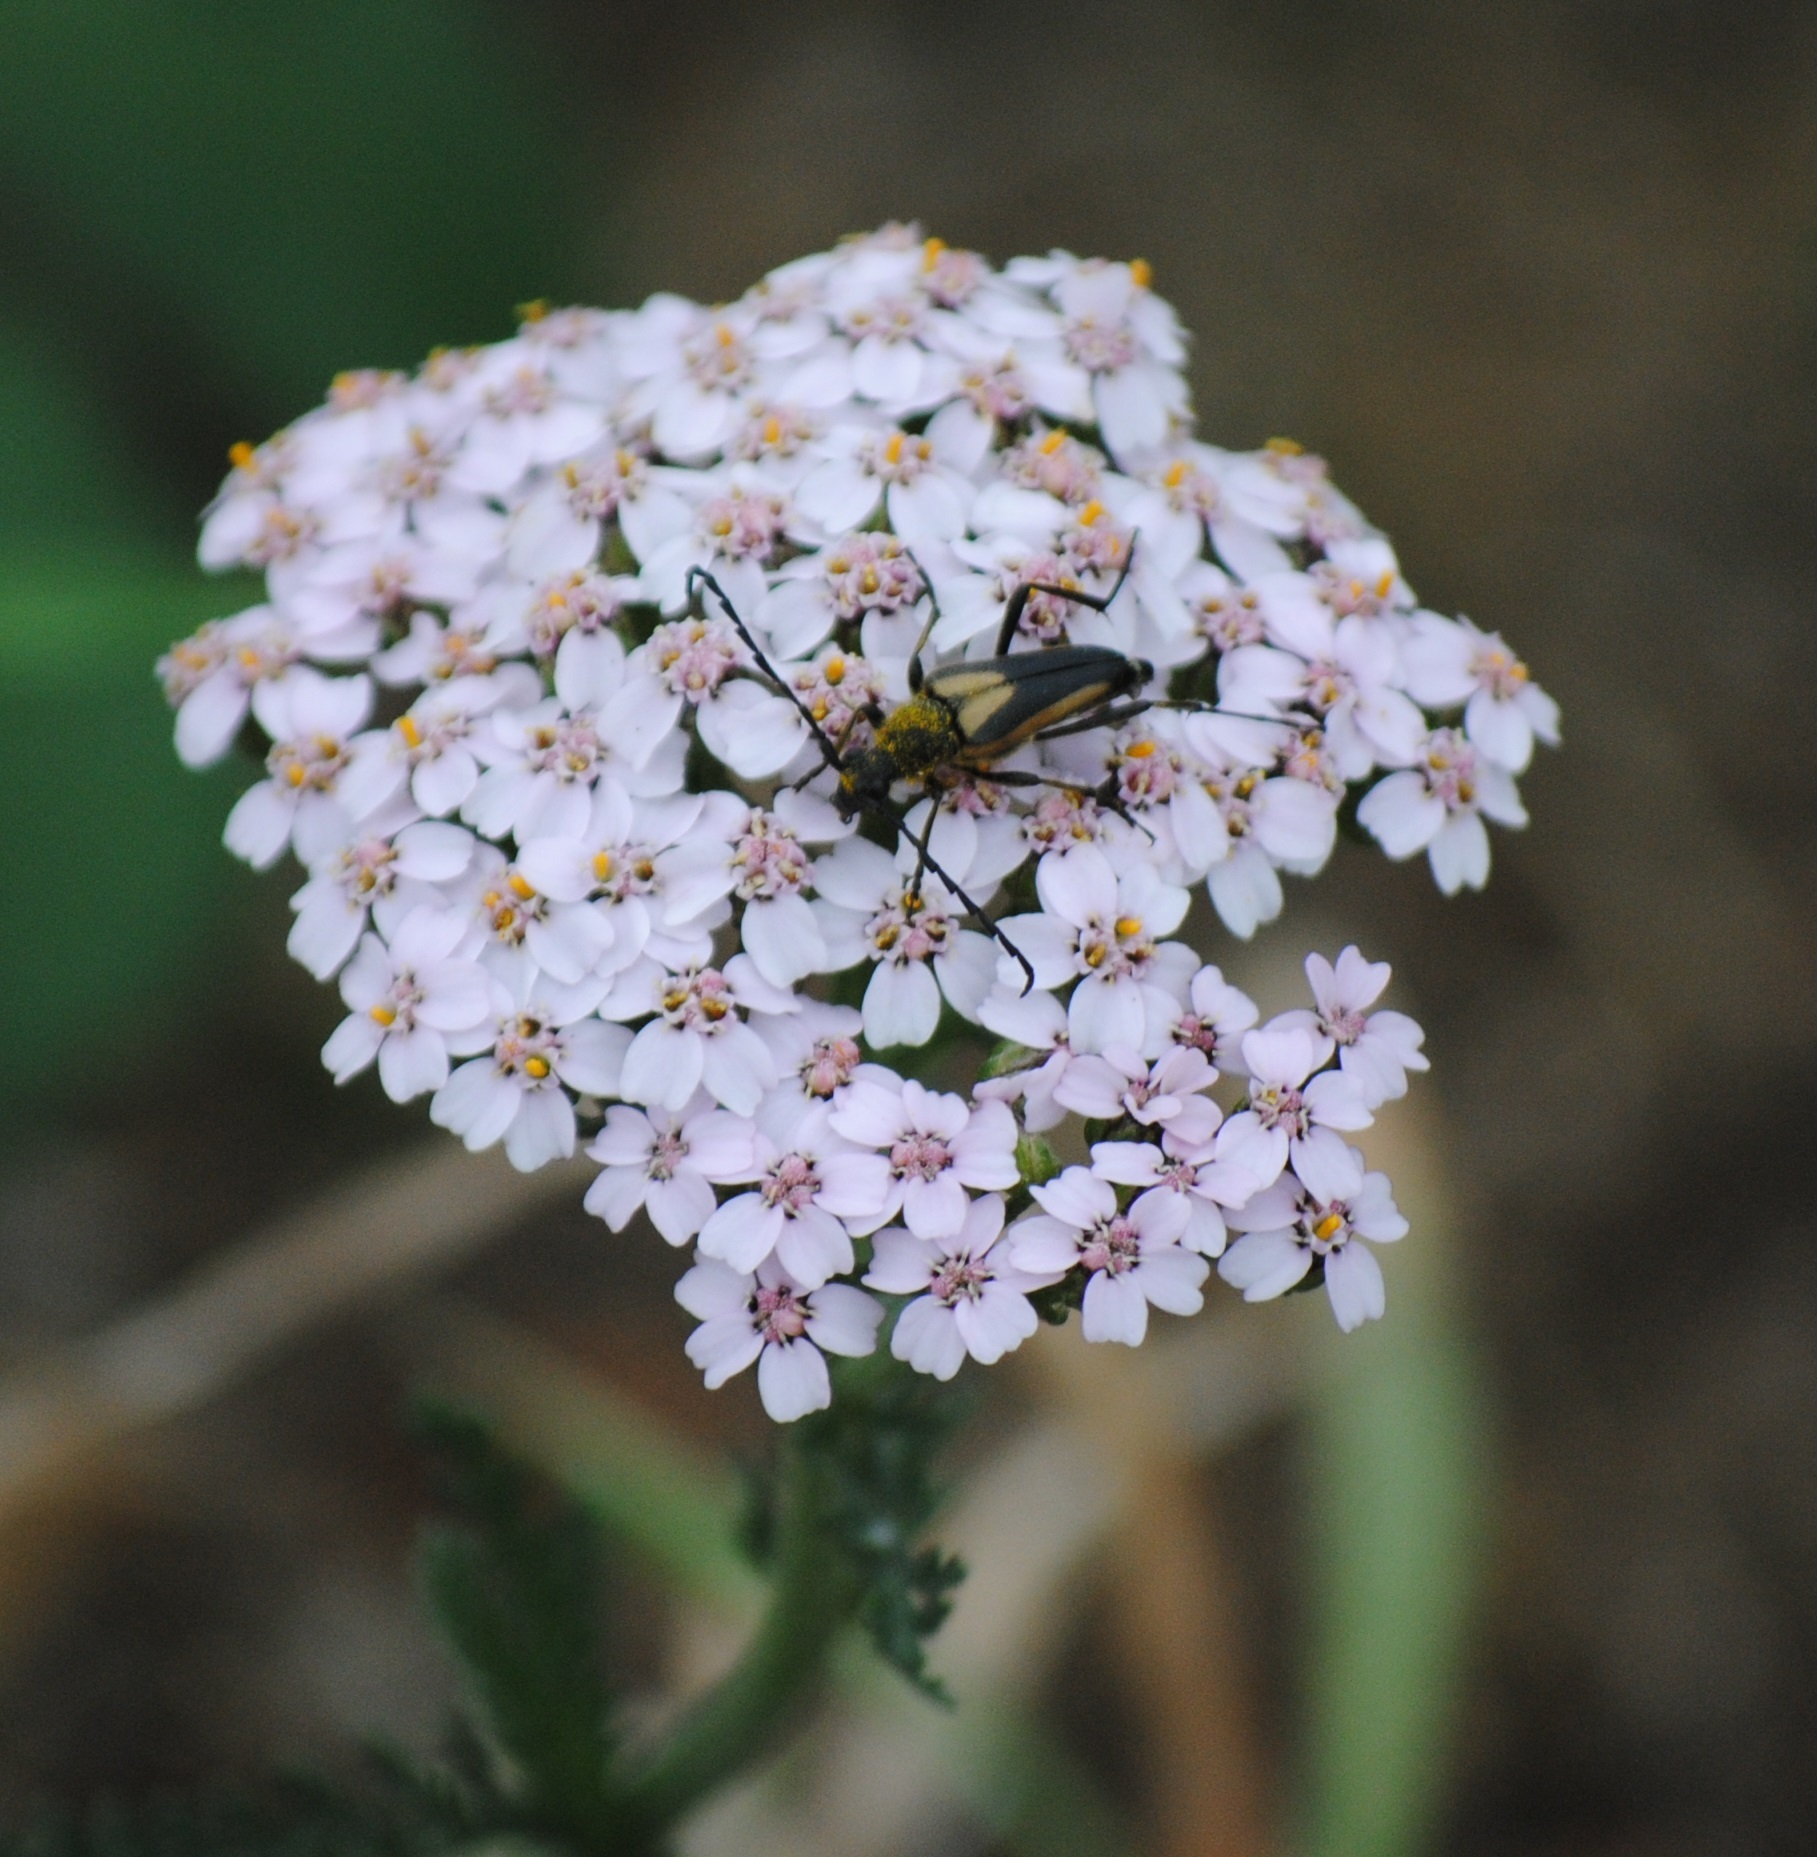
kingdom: Animalia
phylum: Arthropoda
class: Insecta
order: Coleoptera
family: Cerambycidae
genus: Stictoleptura
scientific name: Stictoleptura stragulata
